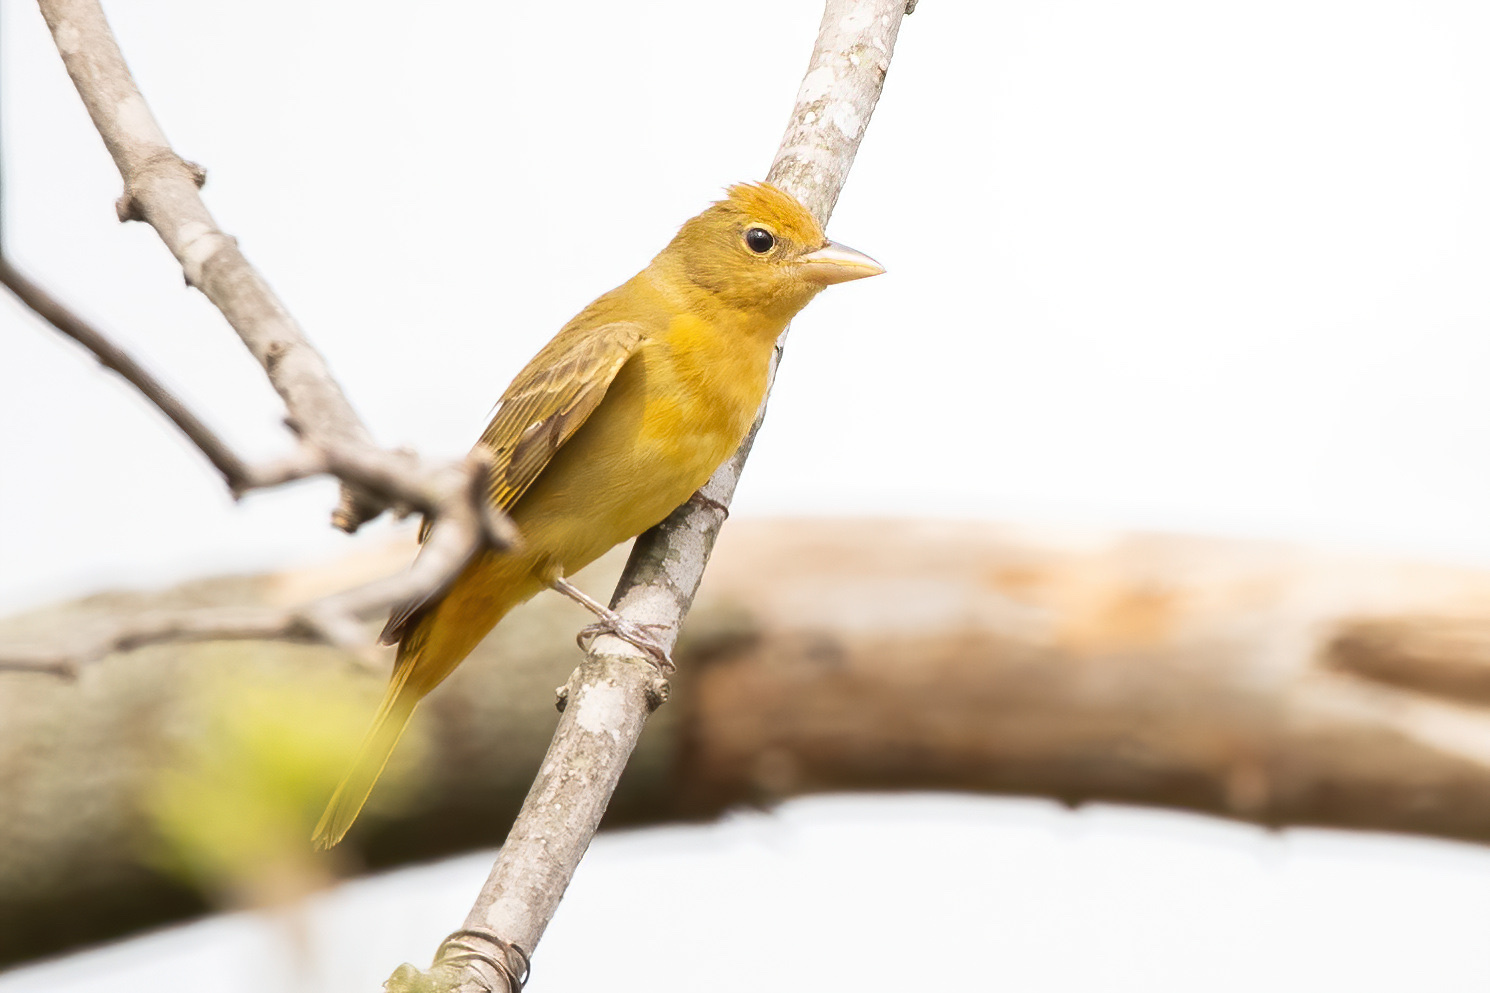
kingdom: Animalia
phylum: Chordata
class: Aves
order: Passeriformes
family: Cardinalidae
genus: Piranga
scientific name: Piranga rubra
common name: Summer tanager
